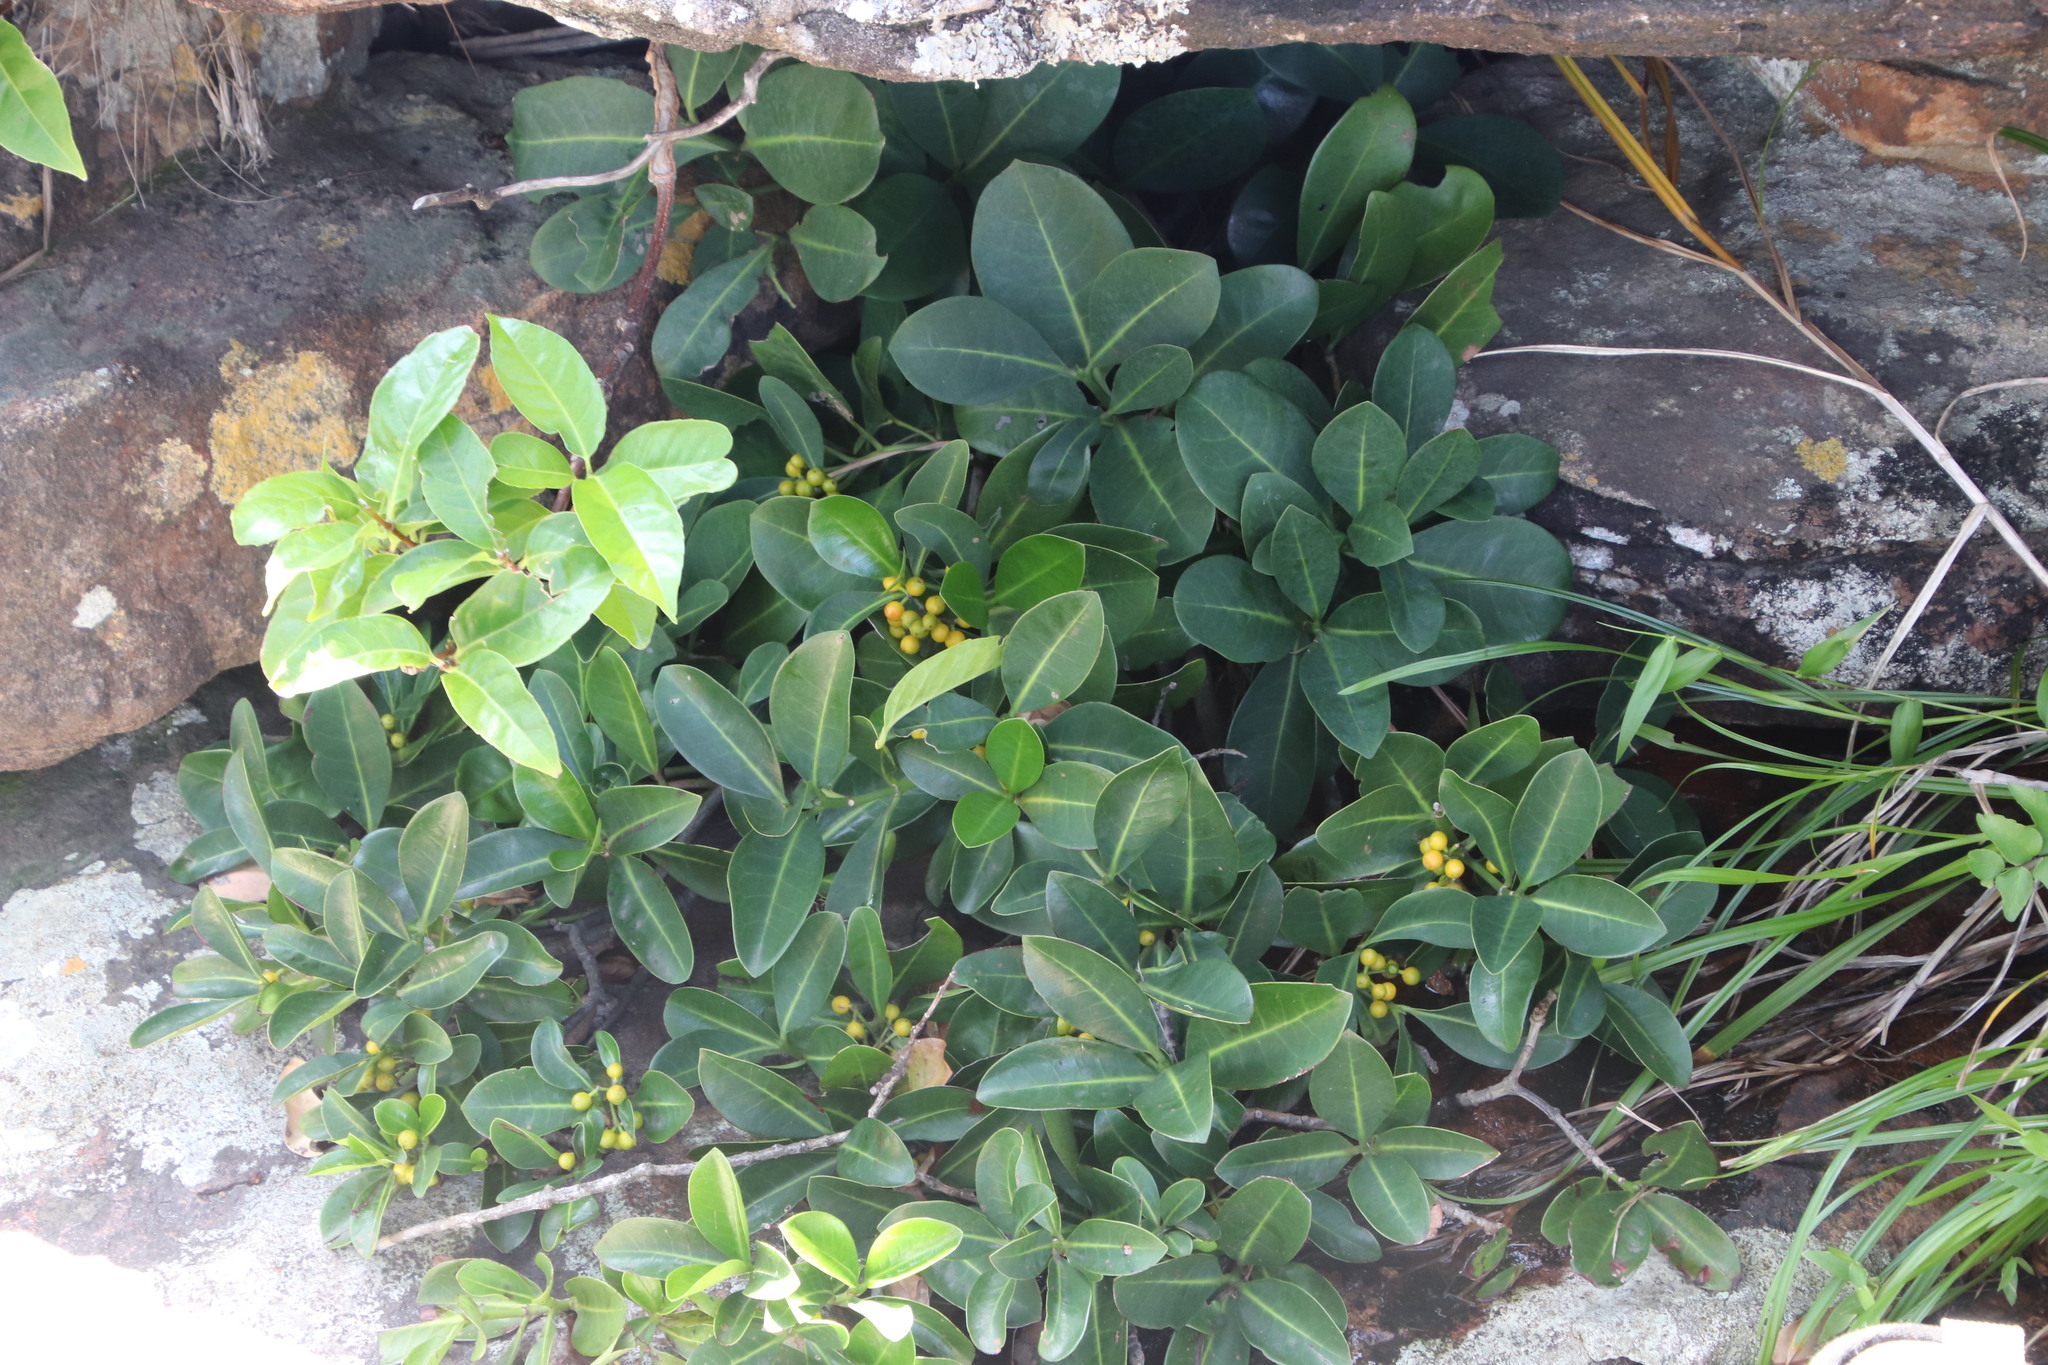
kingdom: Plantae
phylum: Tracheophyta
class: Magnoliopsida
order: Gentianales
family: Rubiaceae
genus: Psychotria
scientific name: Psychotria capensis
